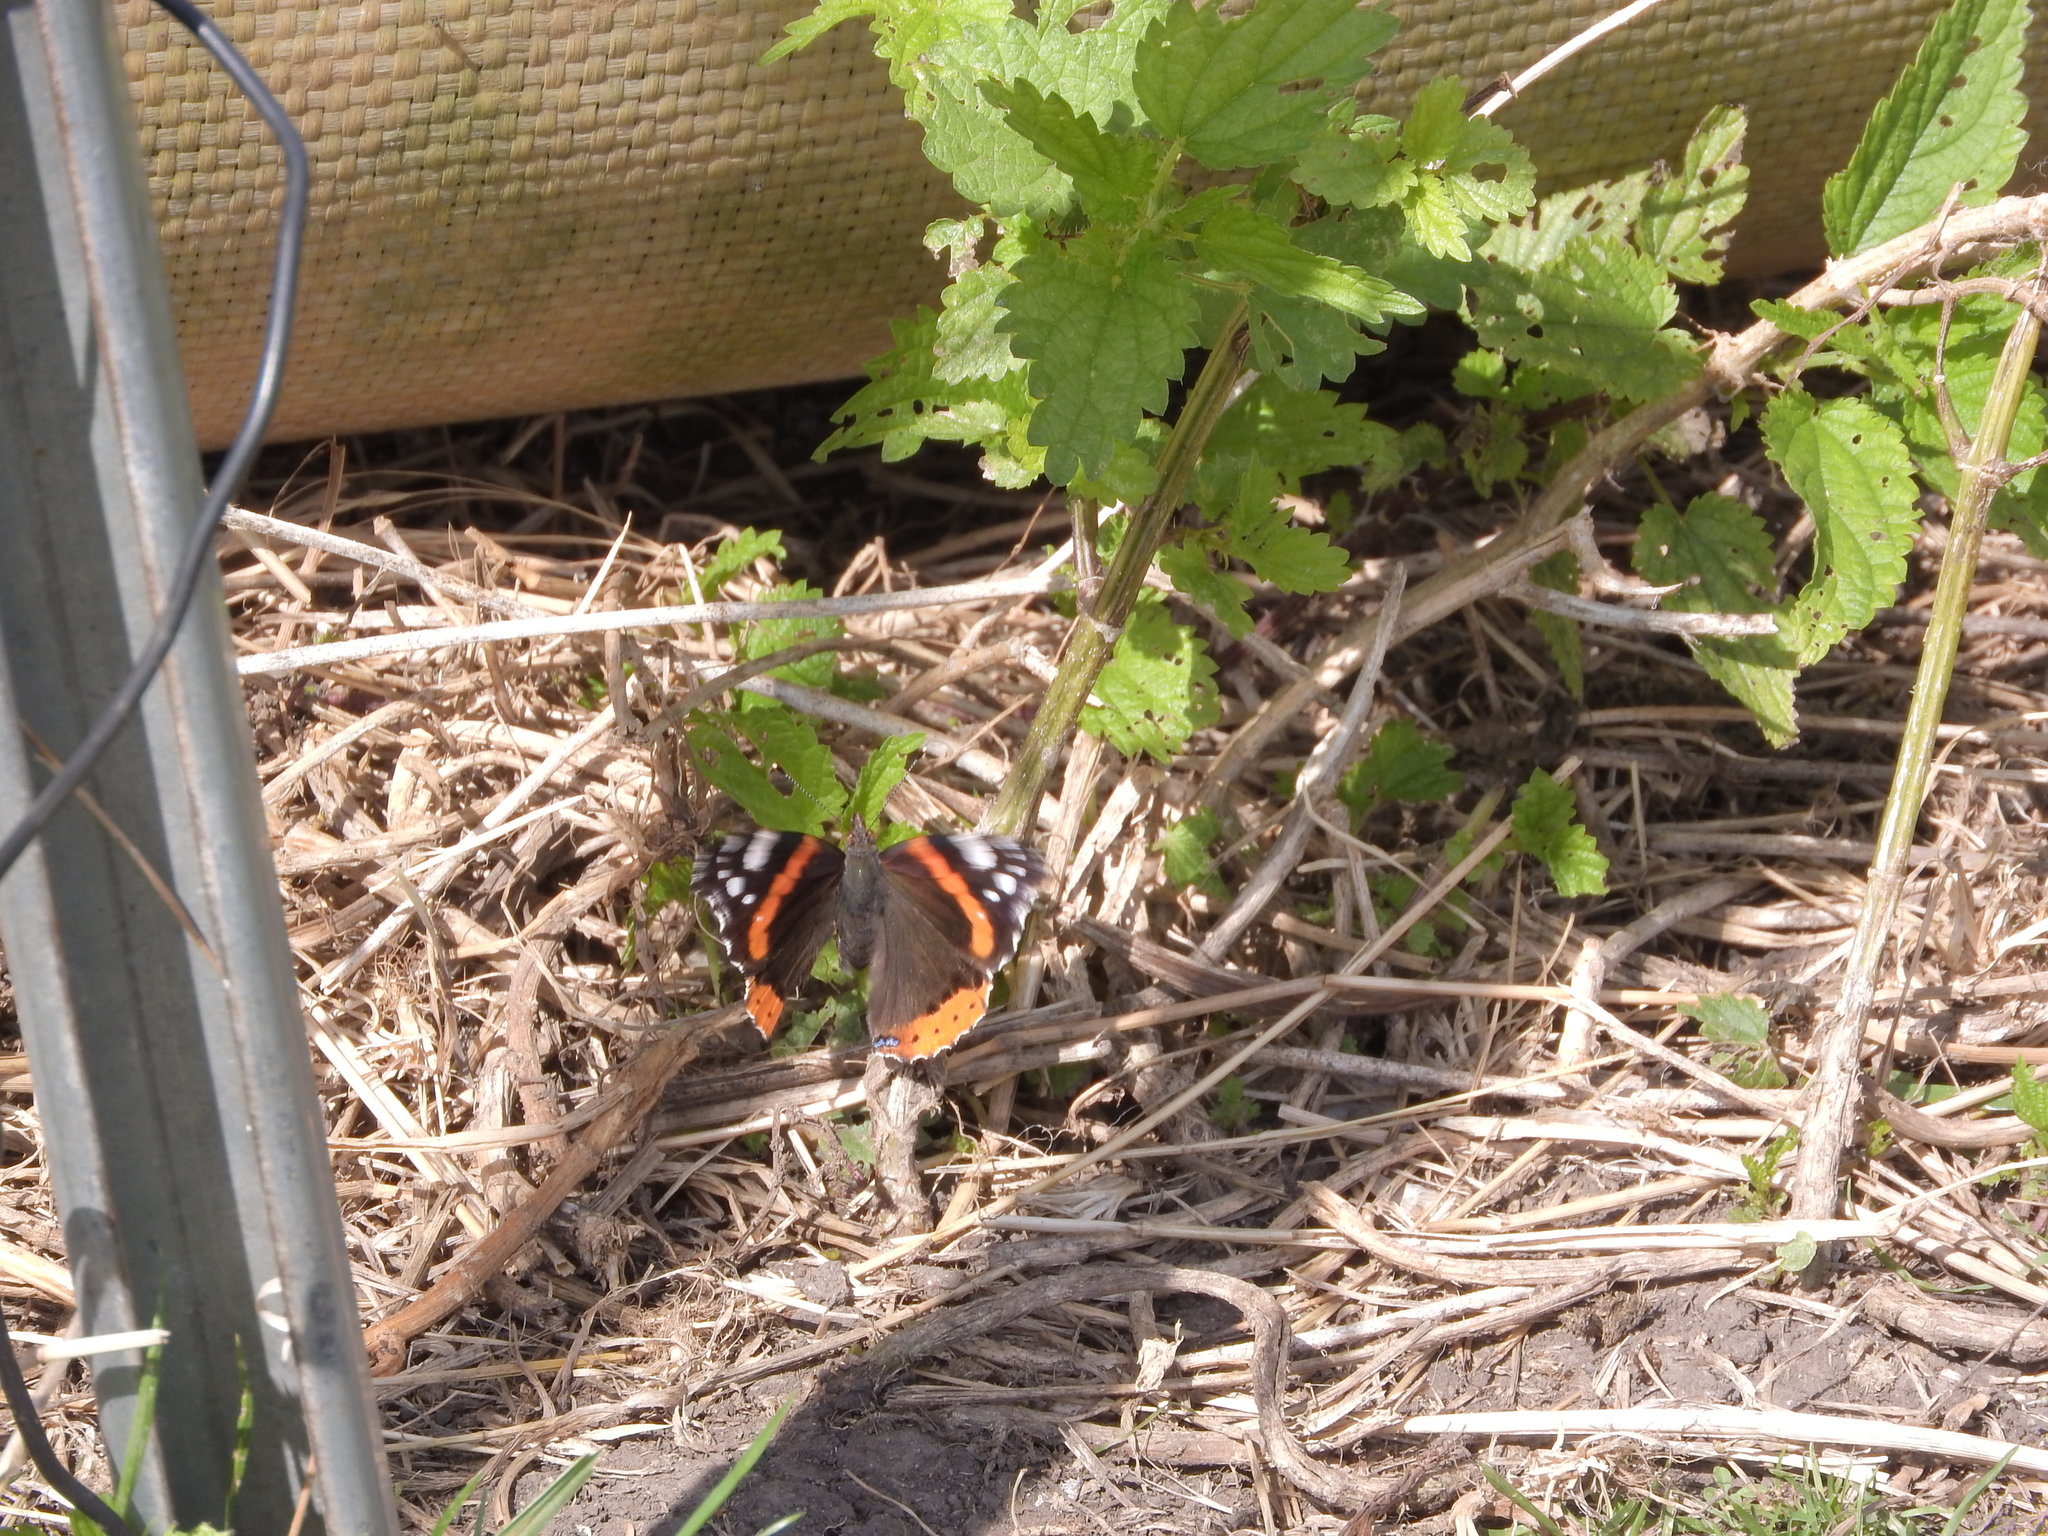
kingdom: Animalia
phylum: Arthropoda
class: Insecta
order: Lepidoptera
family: Nymphalidae
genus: Vanessa
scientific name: Vanessa atalanta
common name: Red admiral
